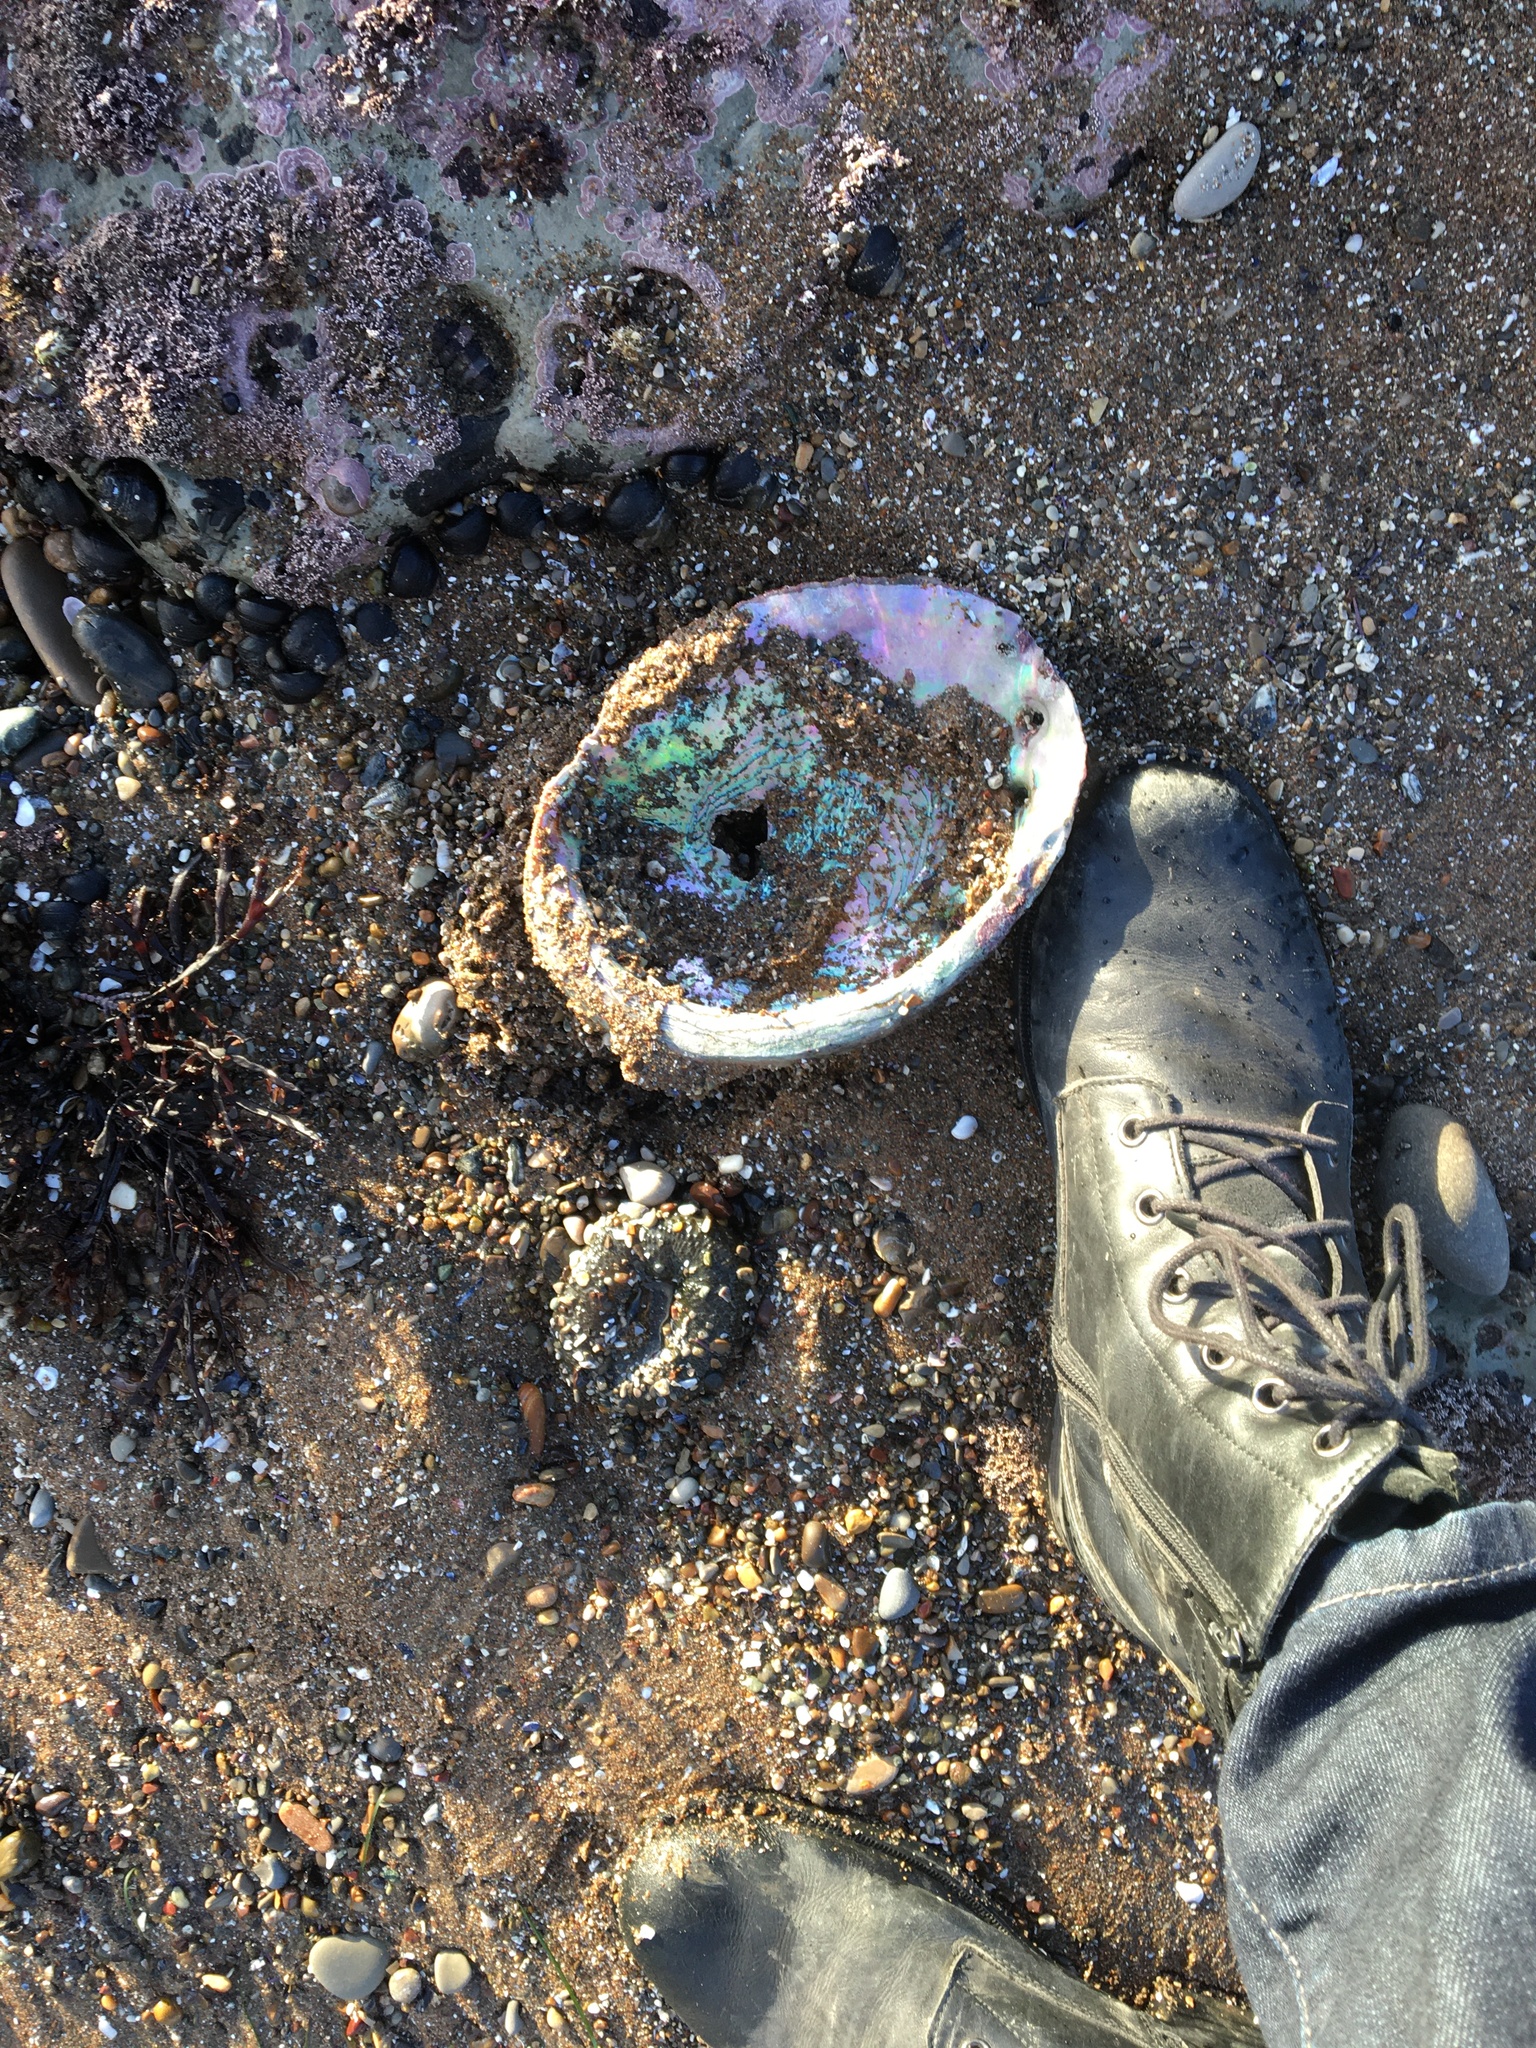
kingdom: Animalia
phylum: Mollusca
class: Gastropoda
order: Lepetellida
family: Haliotidae
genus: Haliotis
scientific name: Haliotis rufescens
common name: Red abalone
